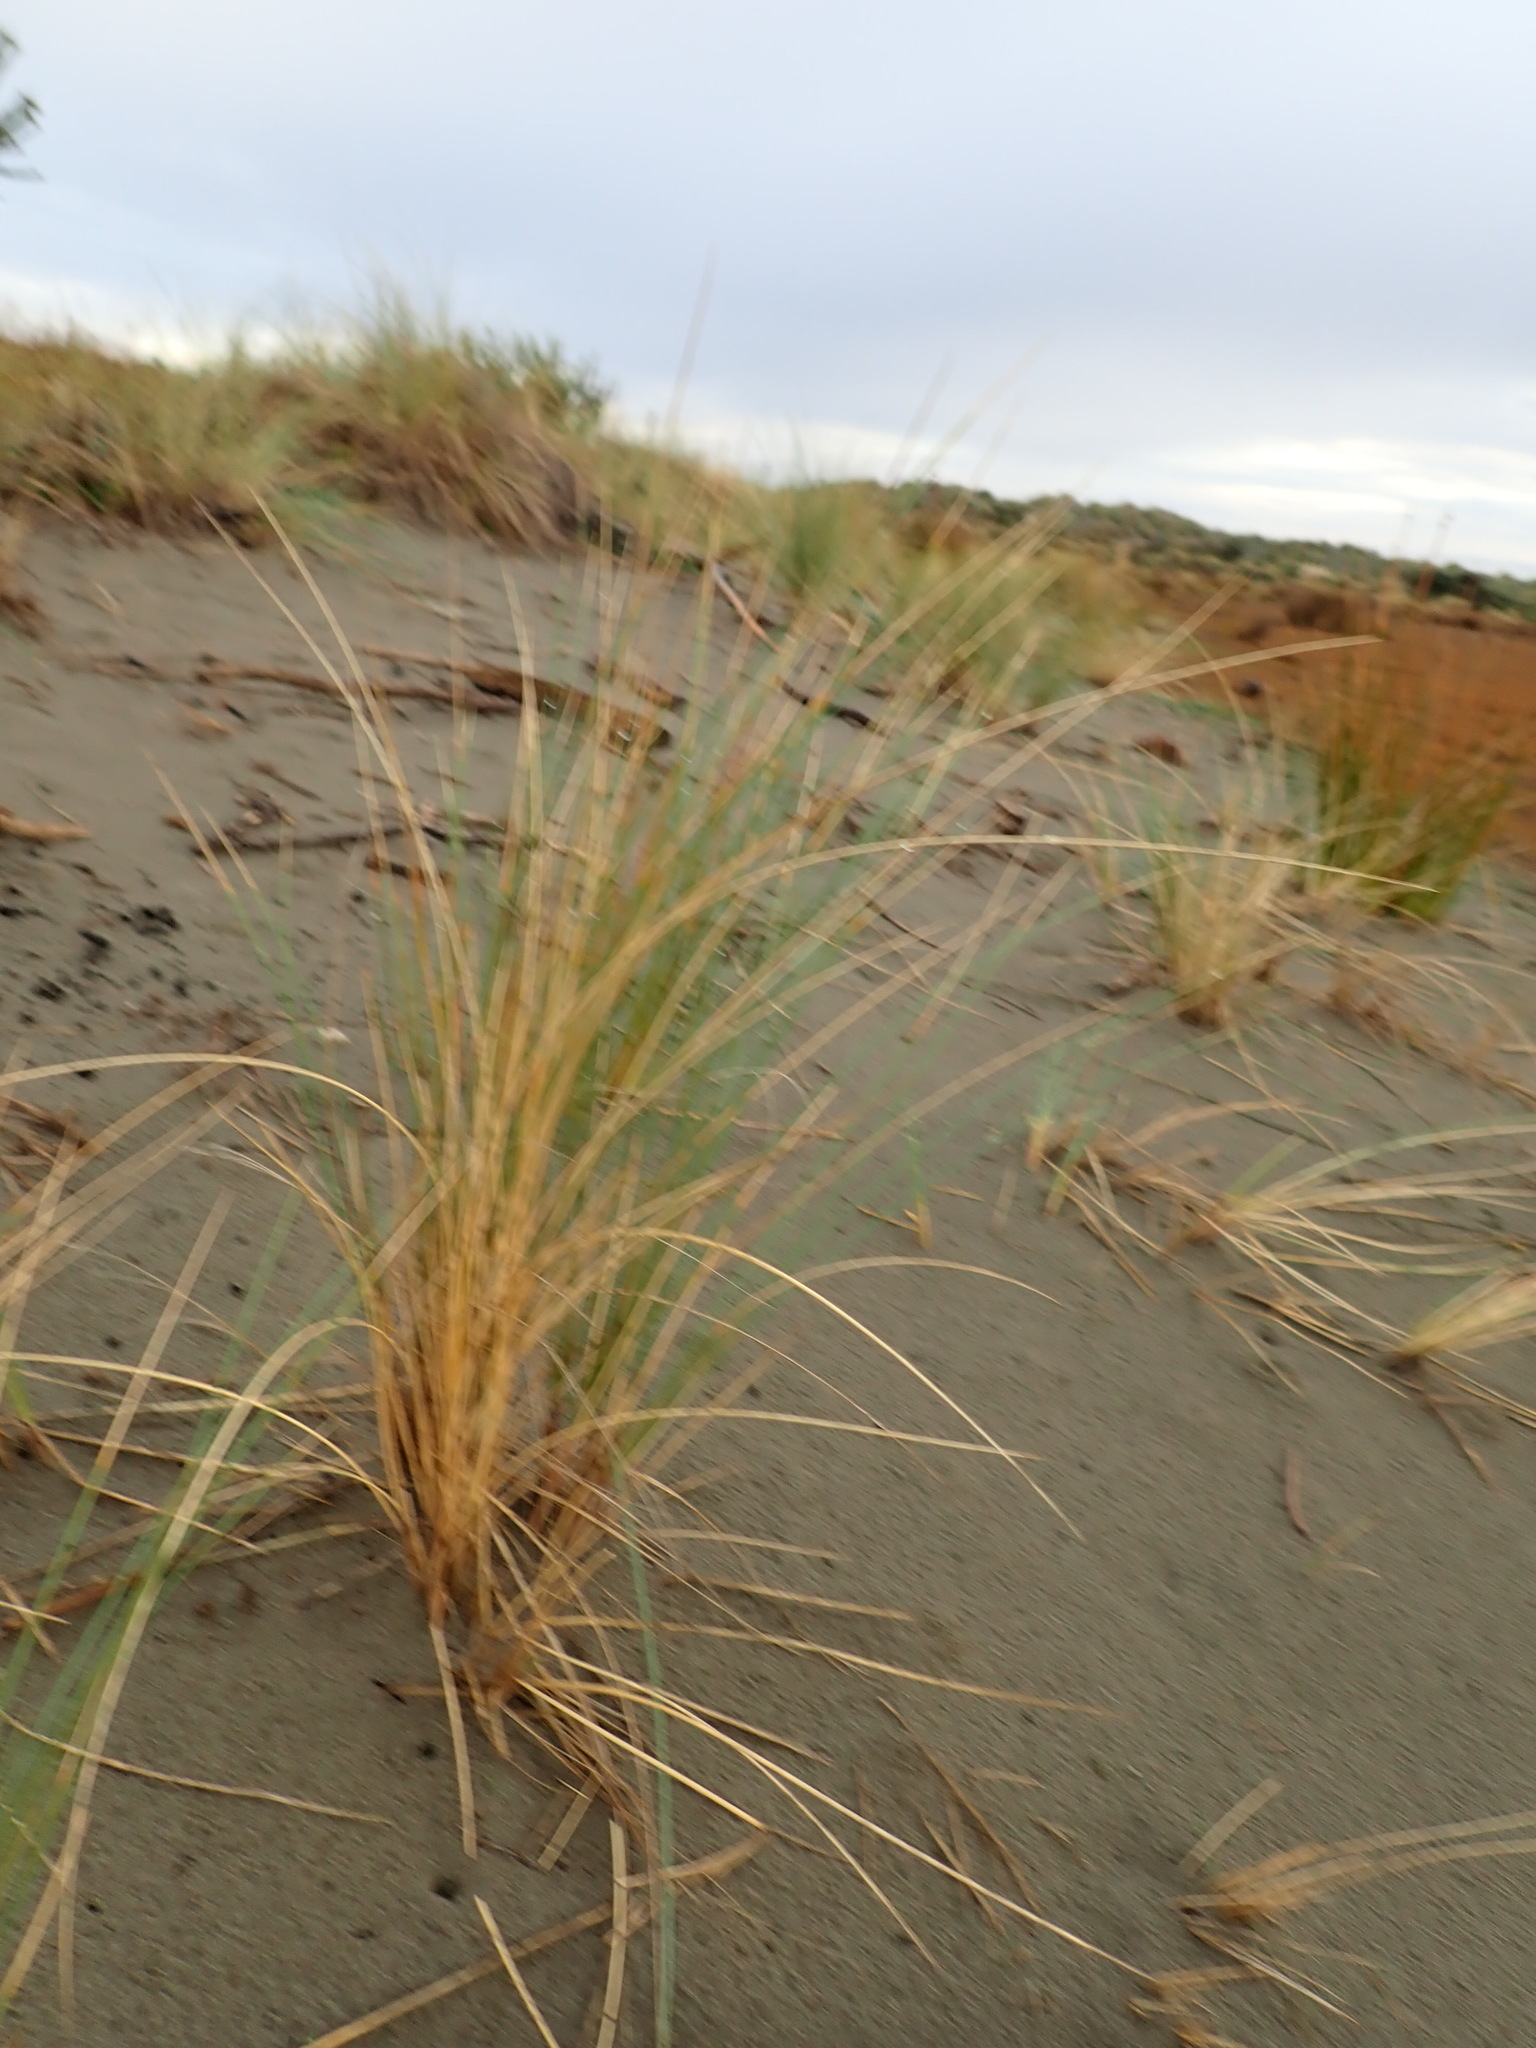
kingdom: Plantae
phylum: Tracheophyta
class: Liliopsida
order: Poales
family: Poaceae
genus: Calamagrostis
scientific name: Calamagrostis arenaria
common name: European beachgrass
